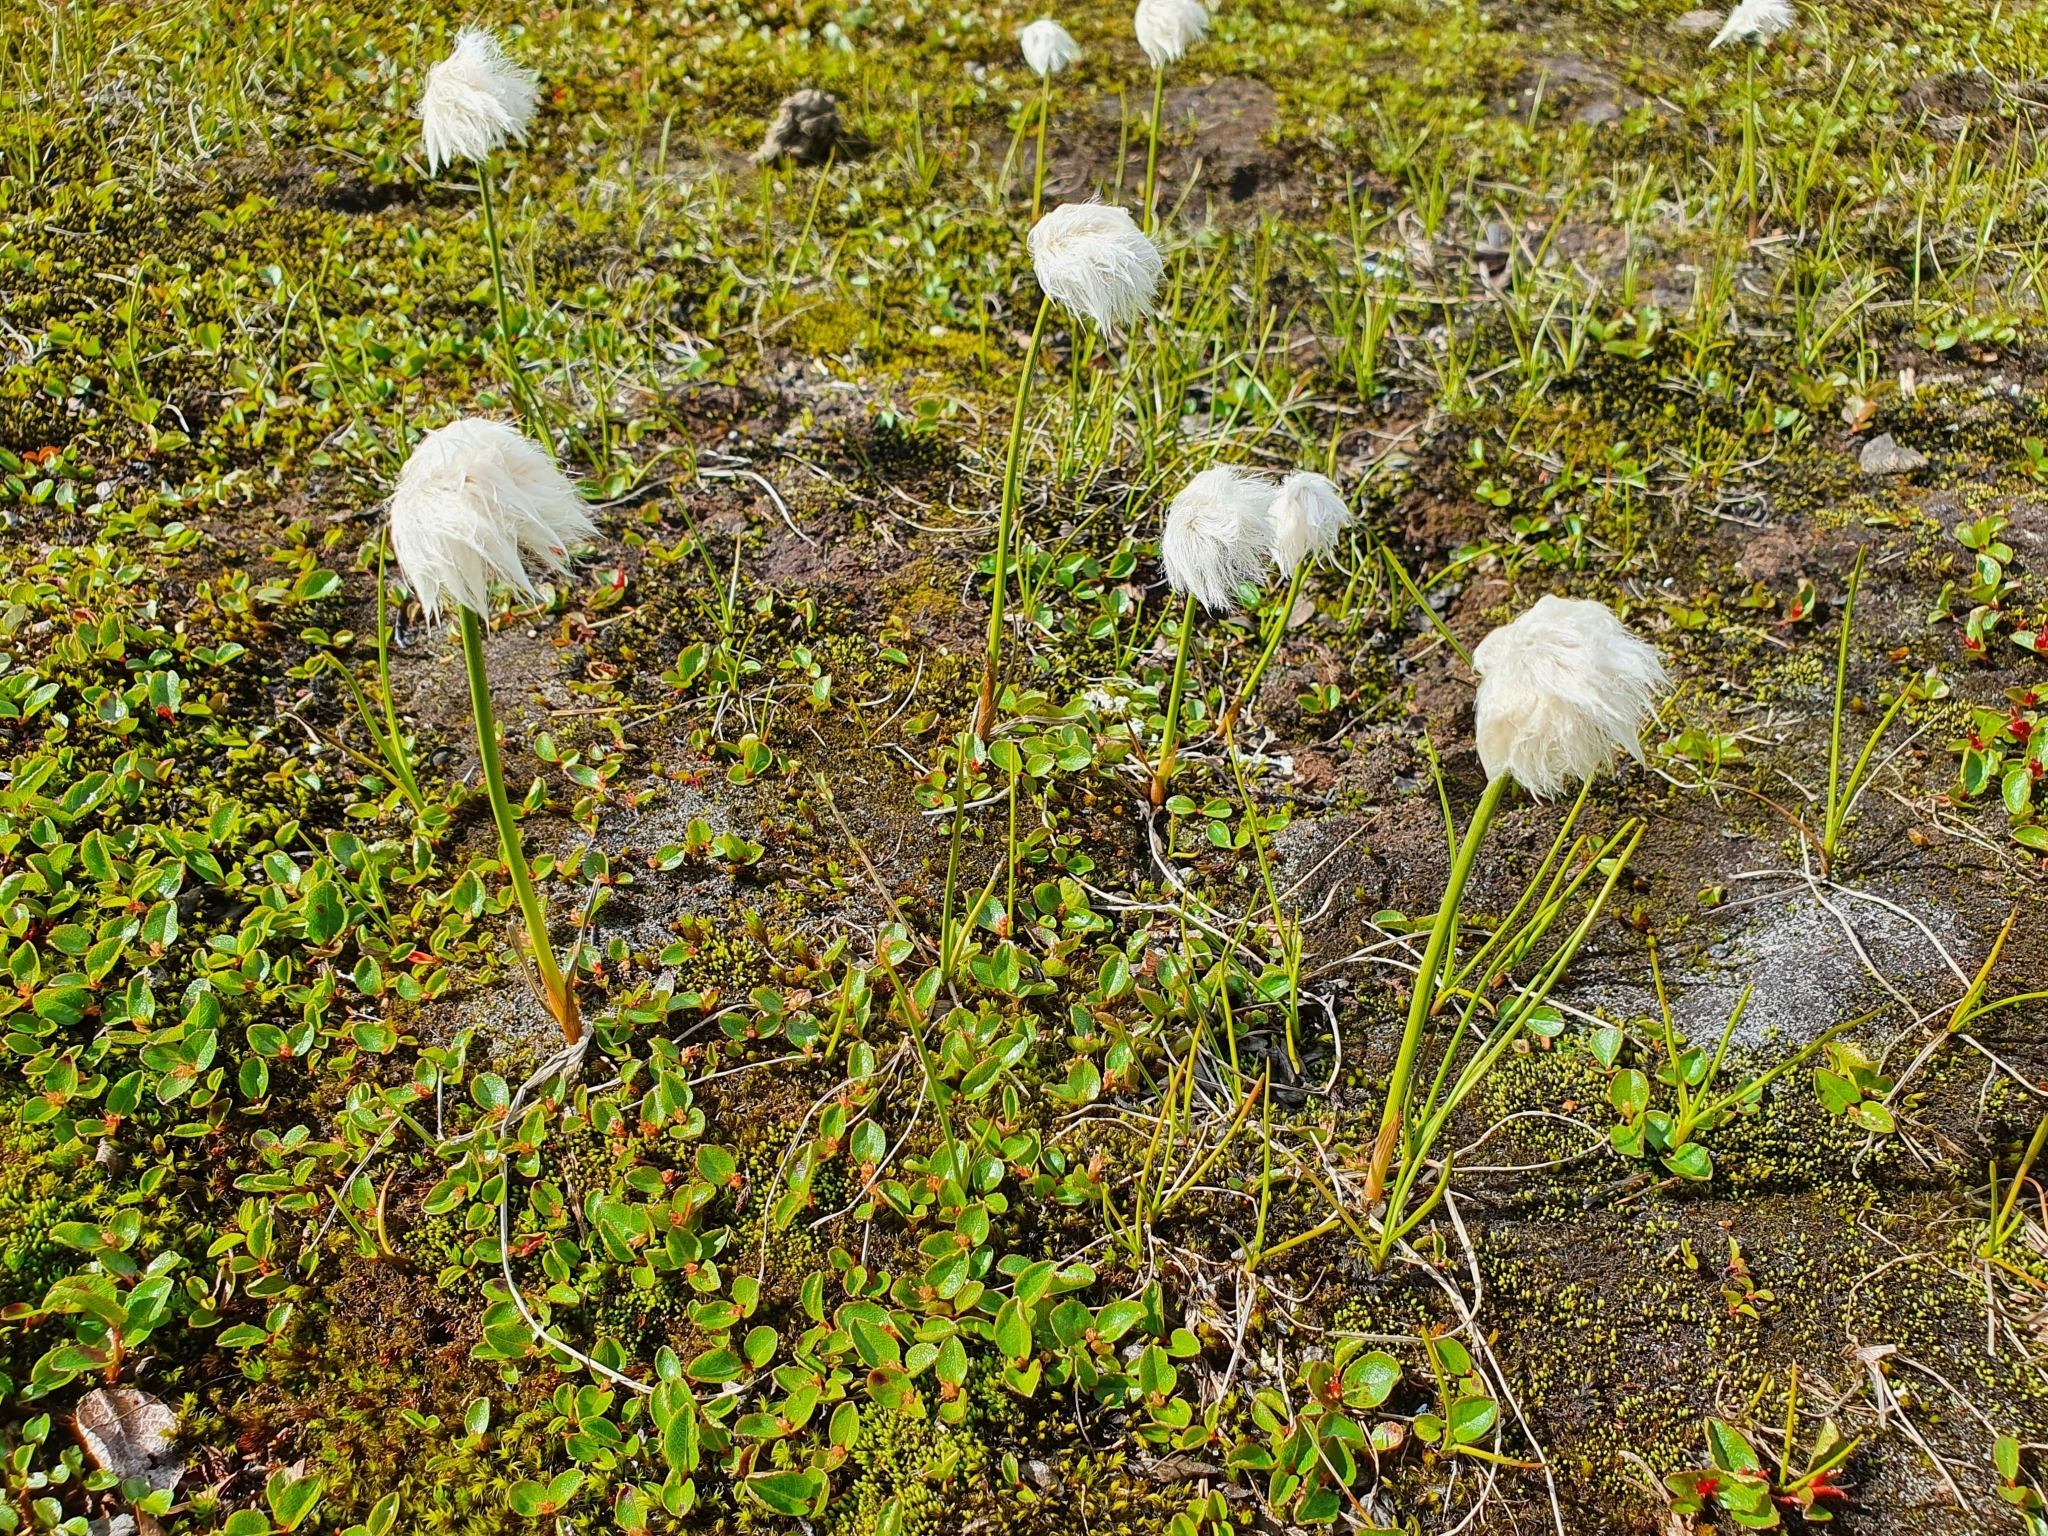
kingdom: Plantae
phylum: Tracheophyta
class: Liliopsida
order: Poales
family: Cyperaceae
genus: Eriophorum
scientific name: Eriophorum scheuchzeri
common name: Scheuchzer's cottongrass
